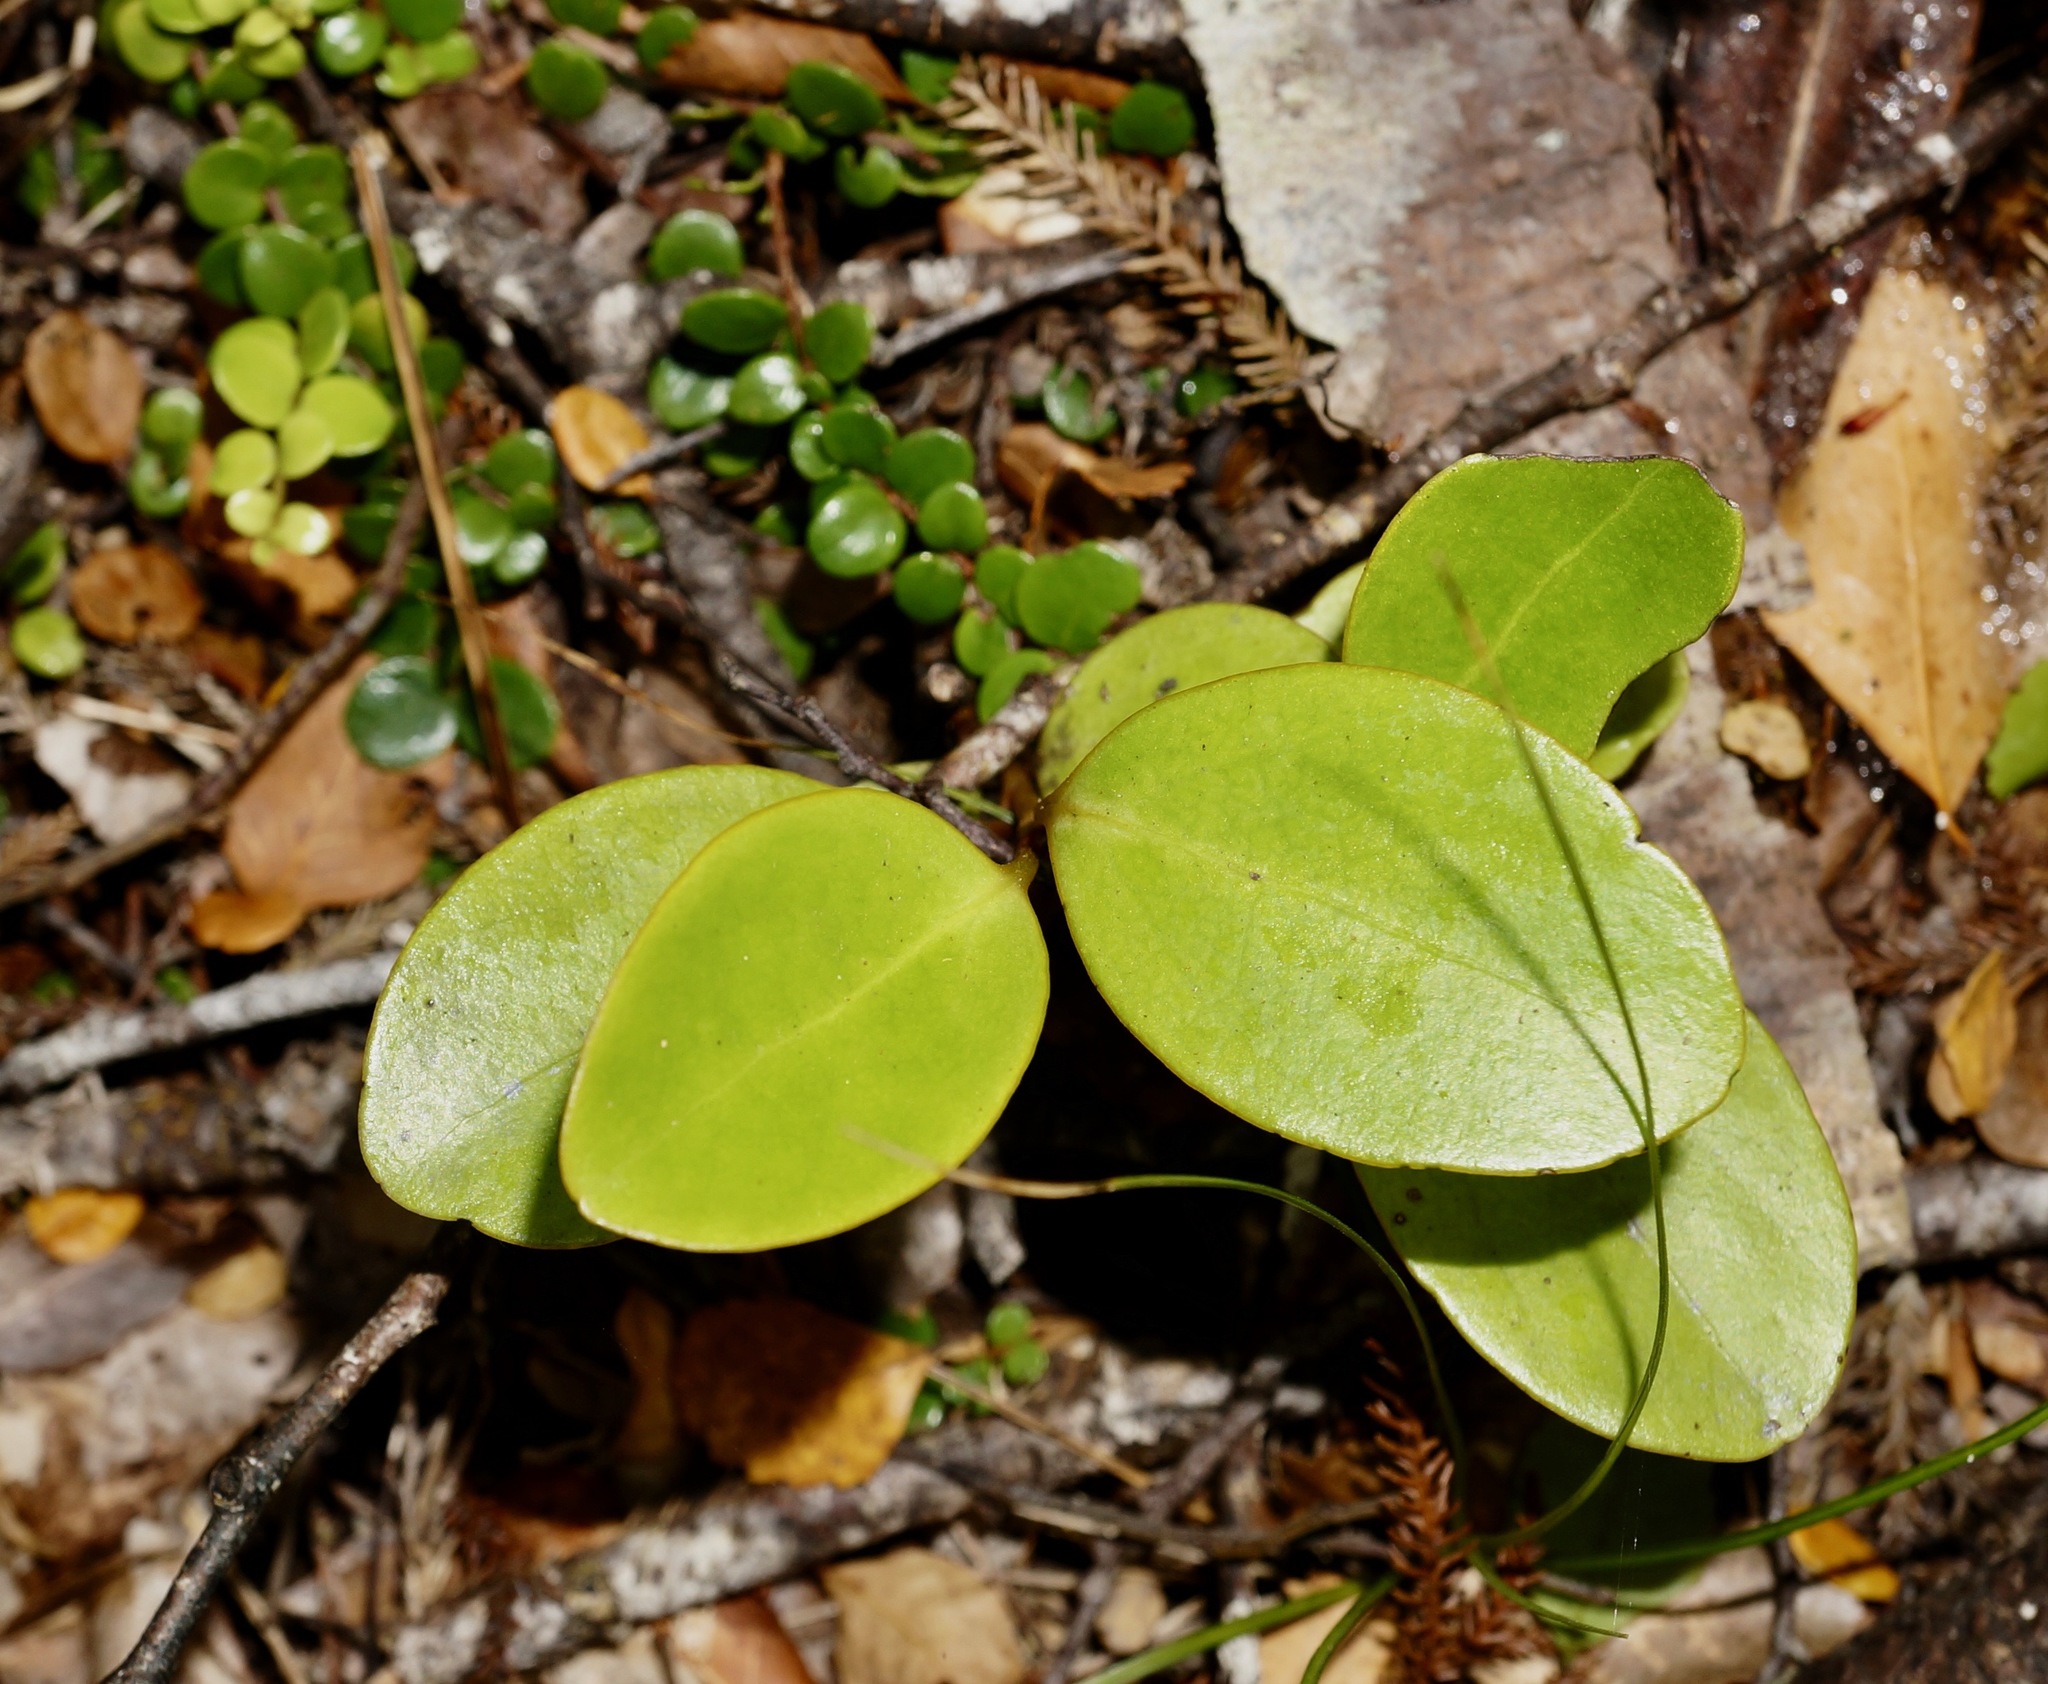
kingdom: Plantae
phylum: Tracheophyta
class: Magnoliopsida
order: Apiales
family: Griseliniaceae
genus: Griselinia
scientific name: Griselinia lucida
